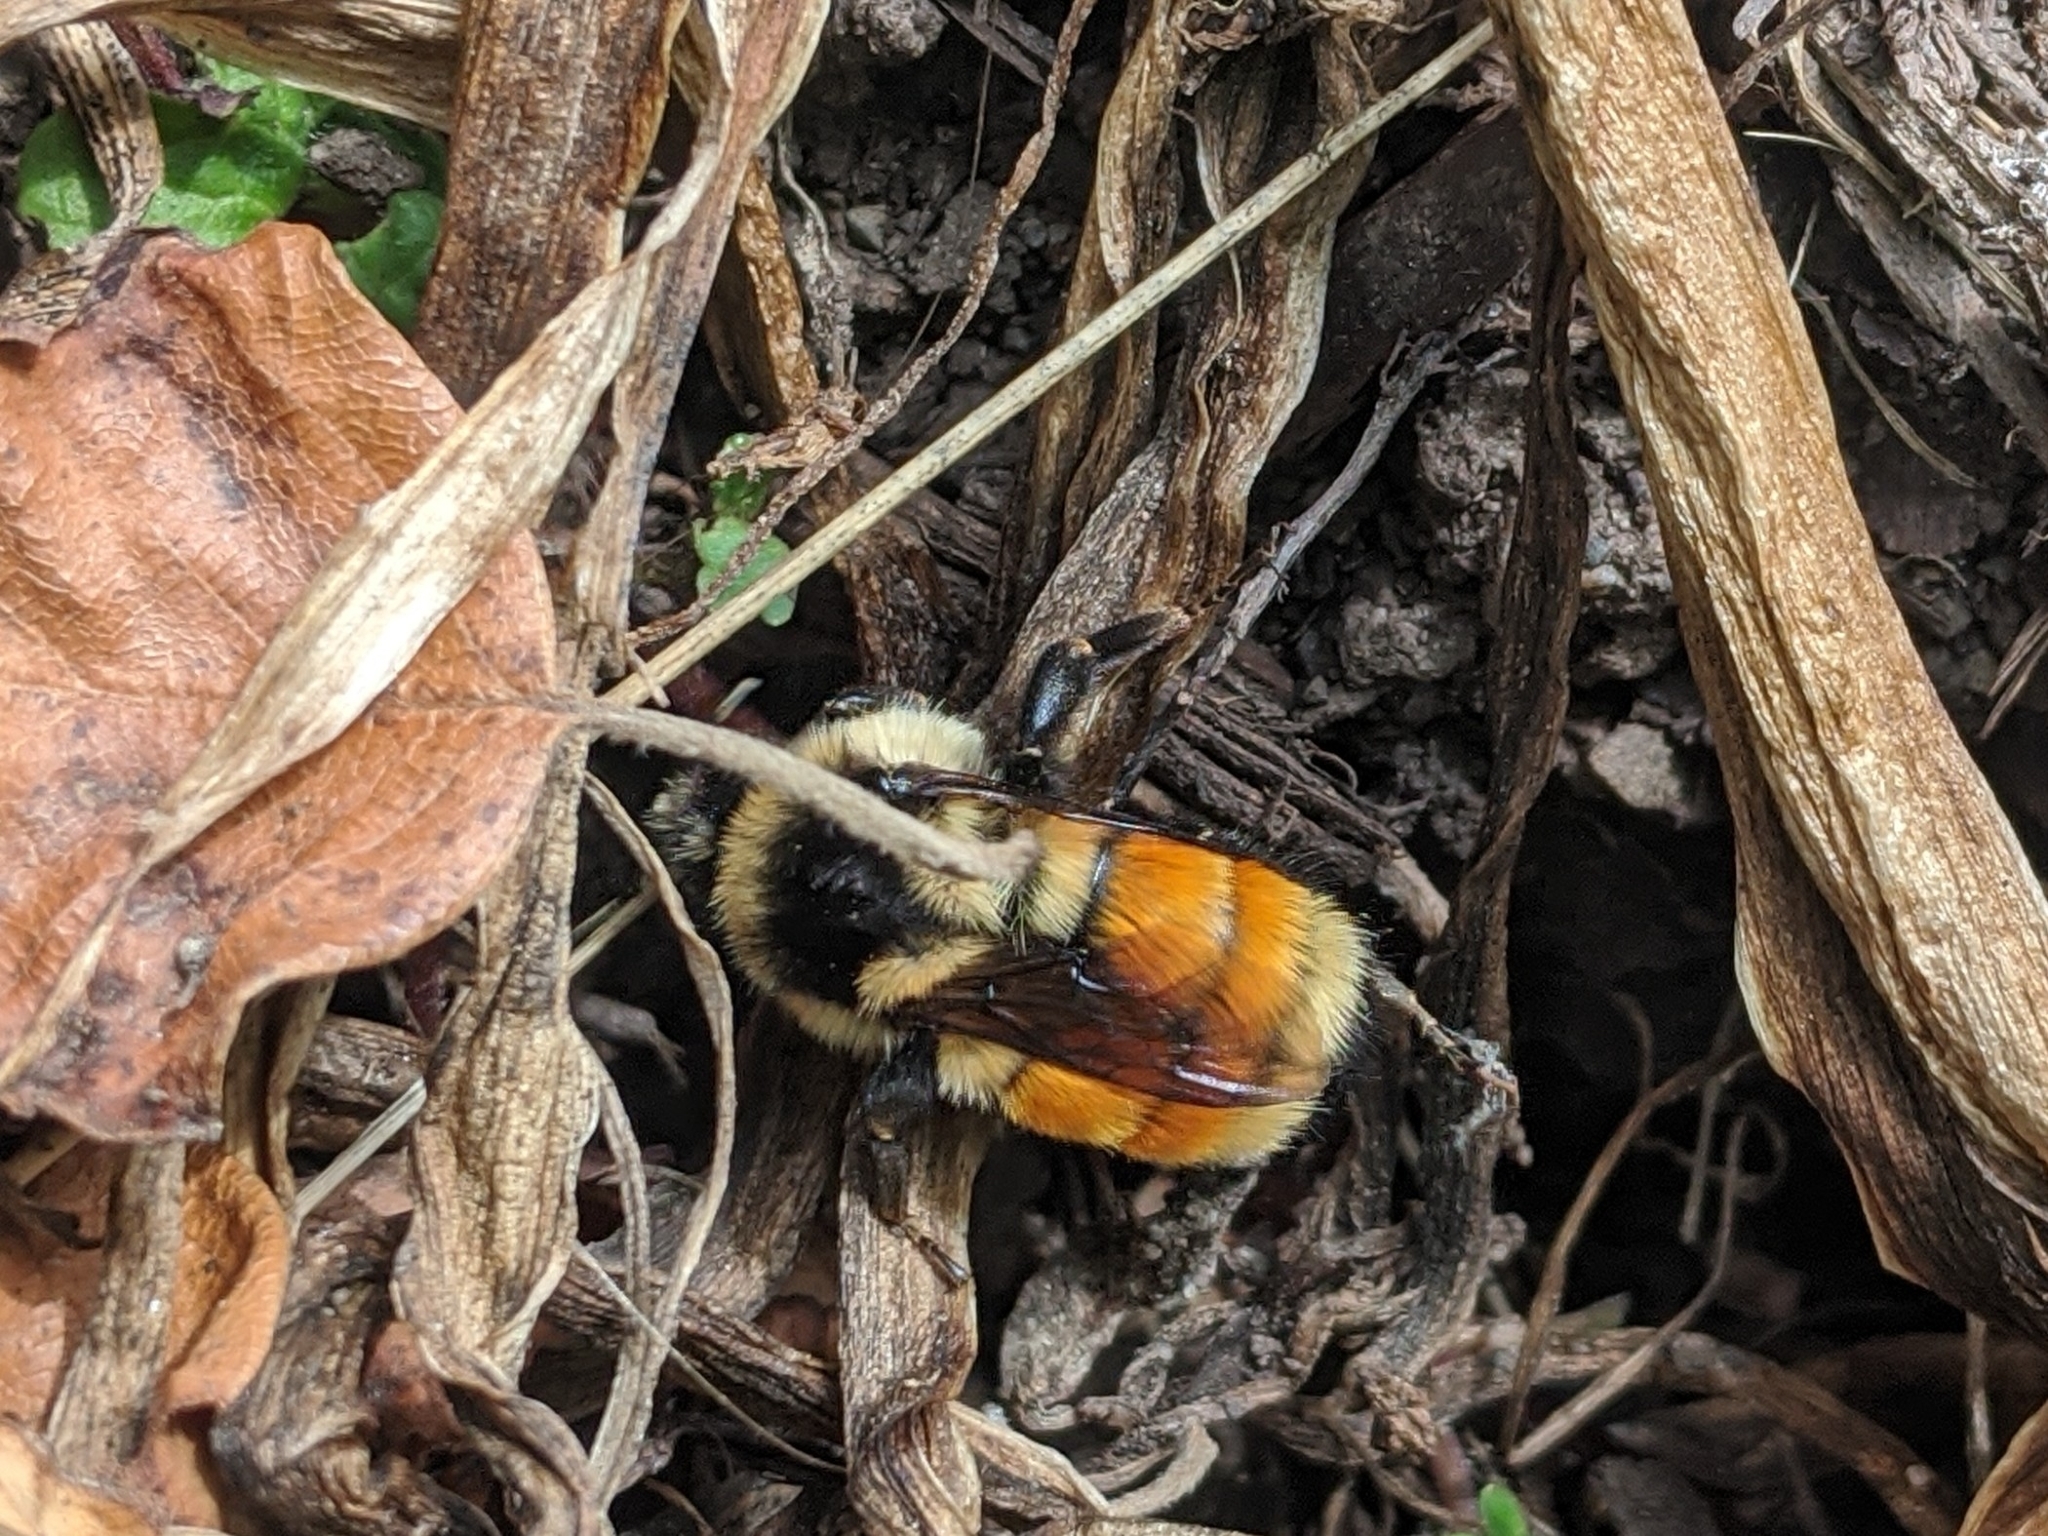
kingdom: Animalia
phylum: Arthropoda
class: Insecta
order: Hymenoptera
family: Apidae
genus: Bombus
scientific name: Bombus ternarius
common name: Tri-colored bumble bee
